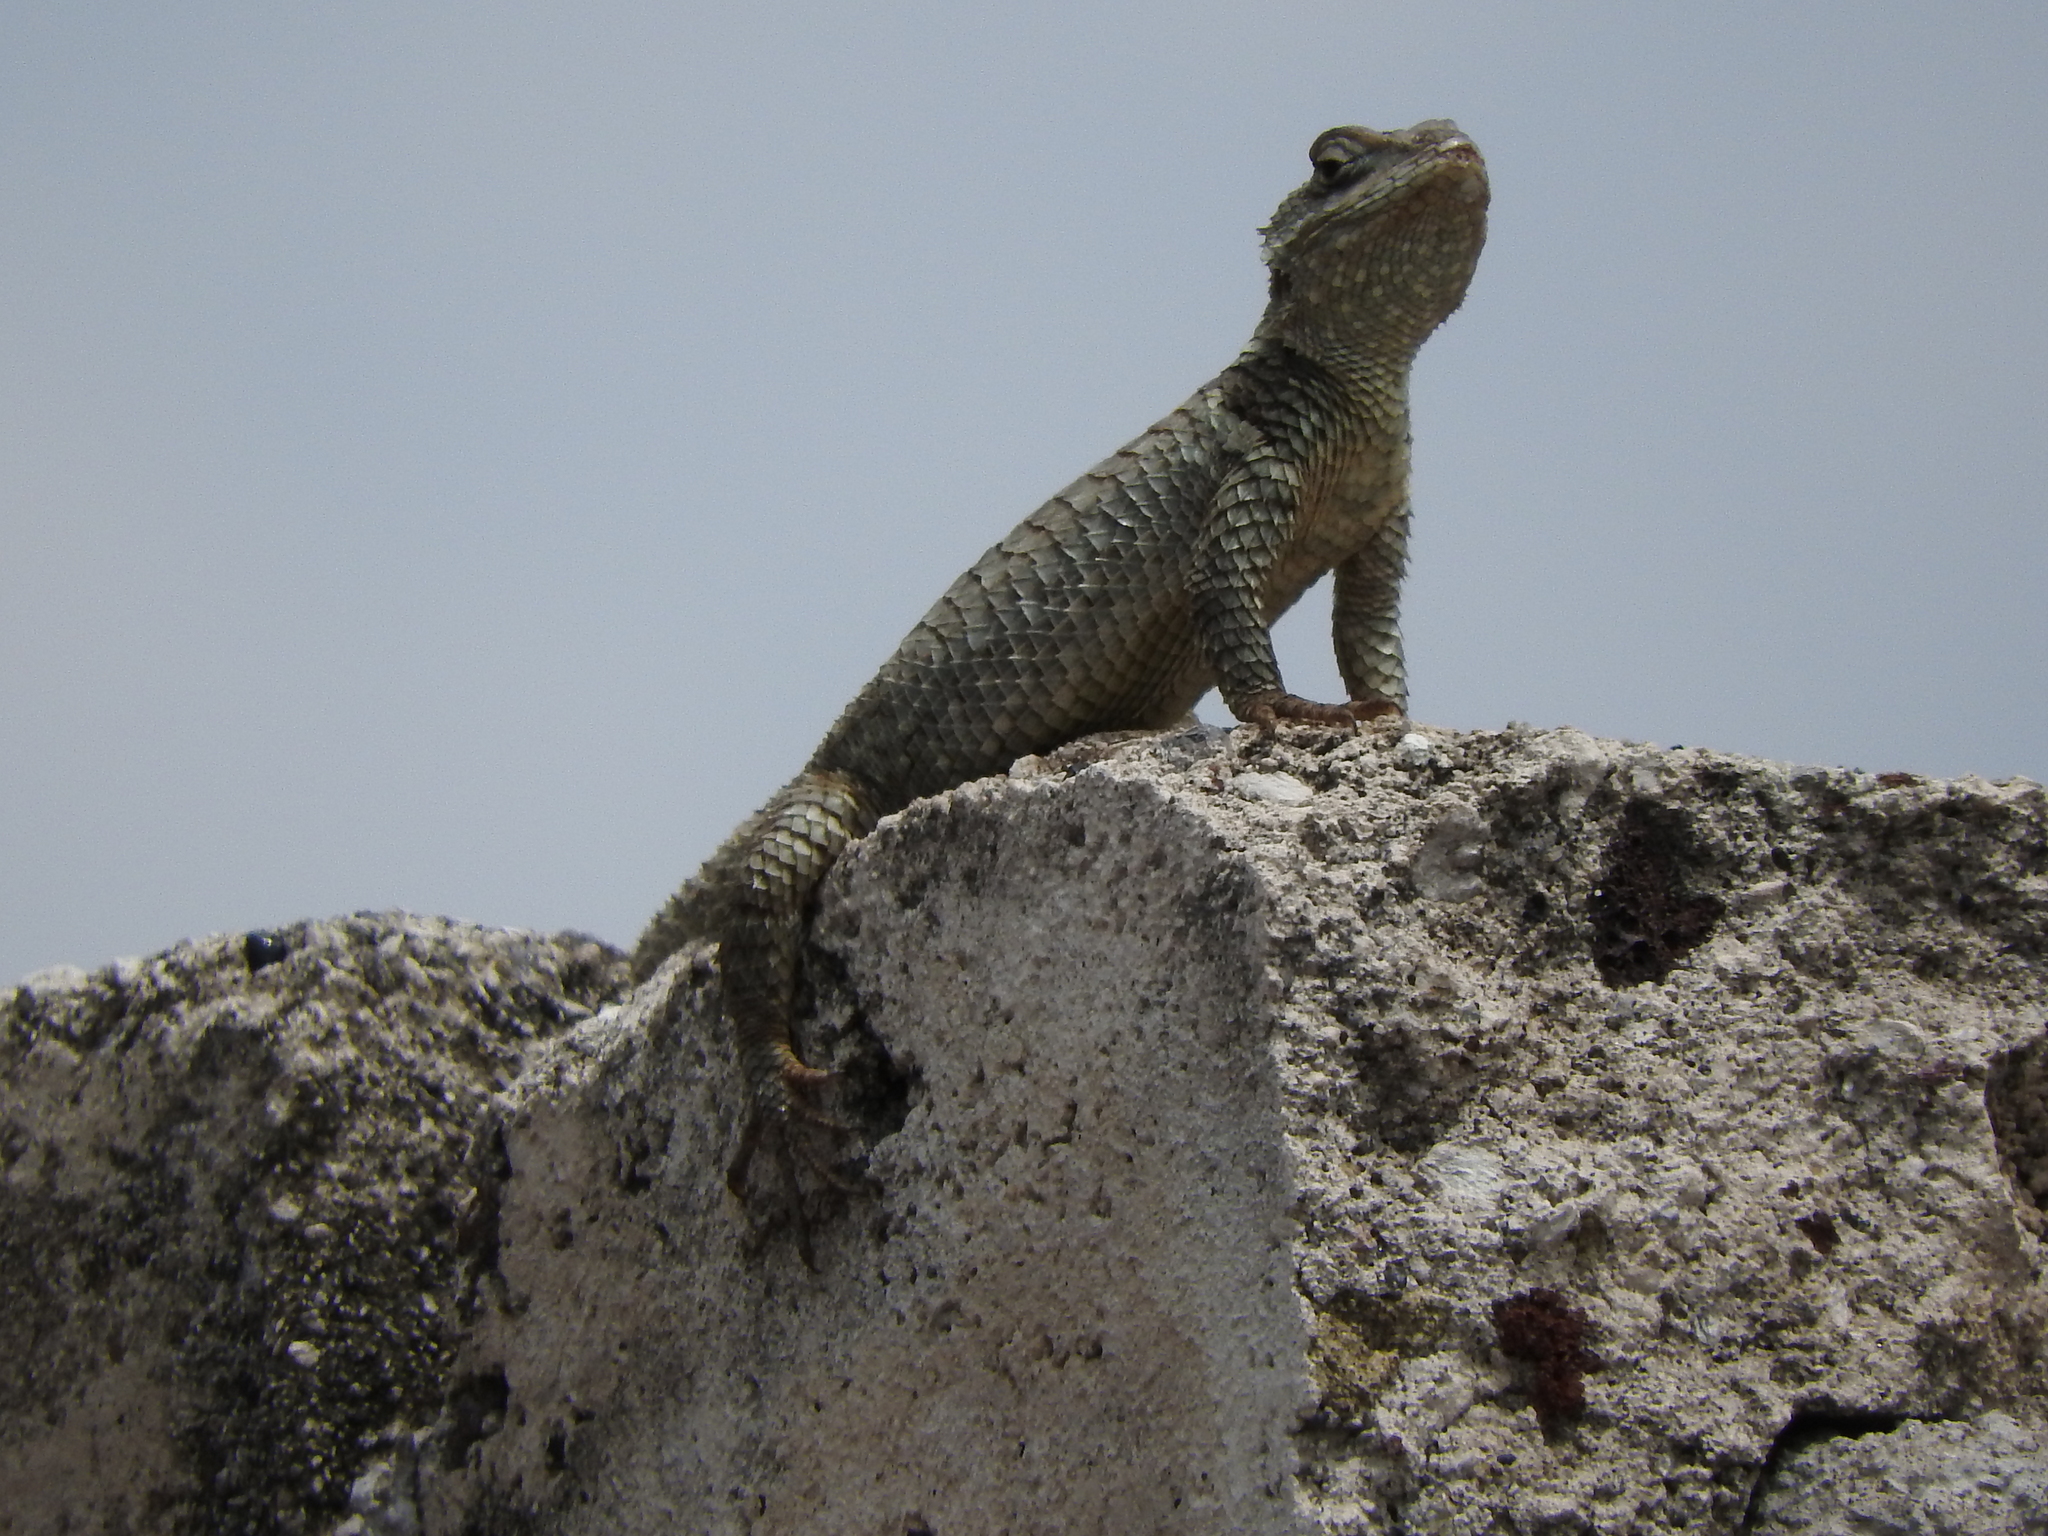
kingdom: Animalia
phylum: Chordata
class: Squamata
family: Phrynosomatidae
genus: Sceloporus
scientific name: Sceloporus torquatus
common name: Central plateau torquate lizard [melanogaster]
